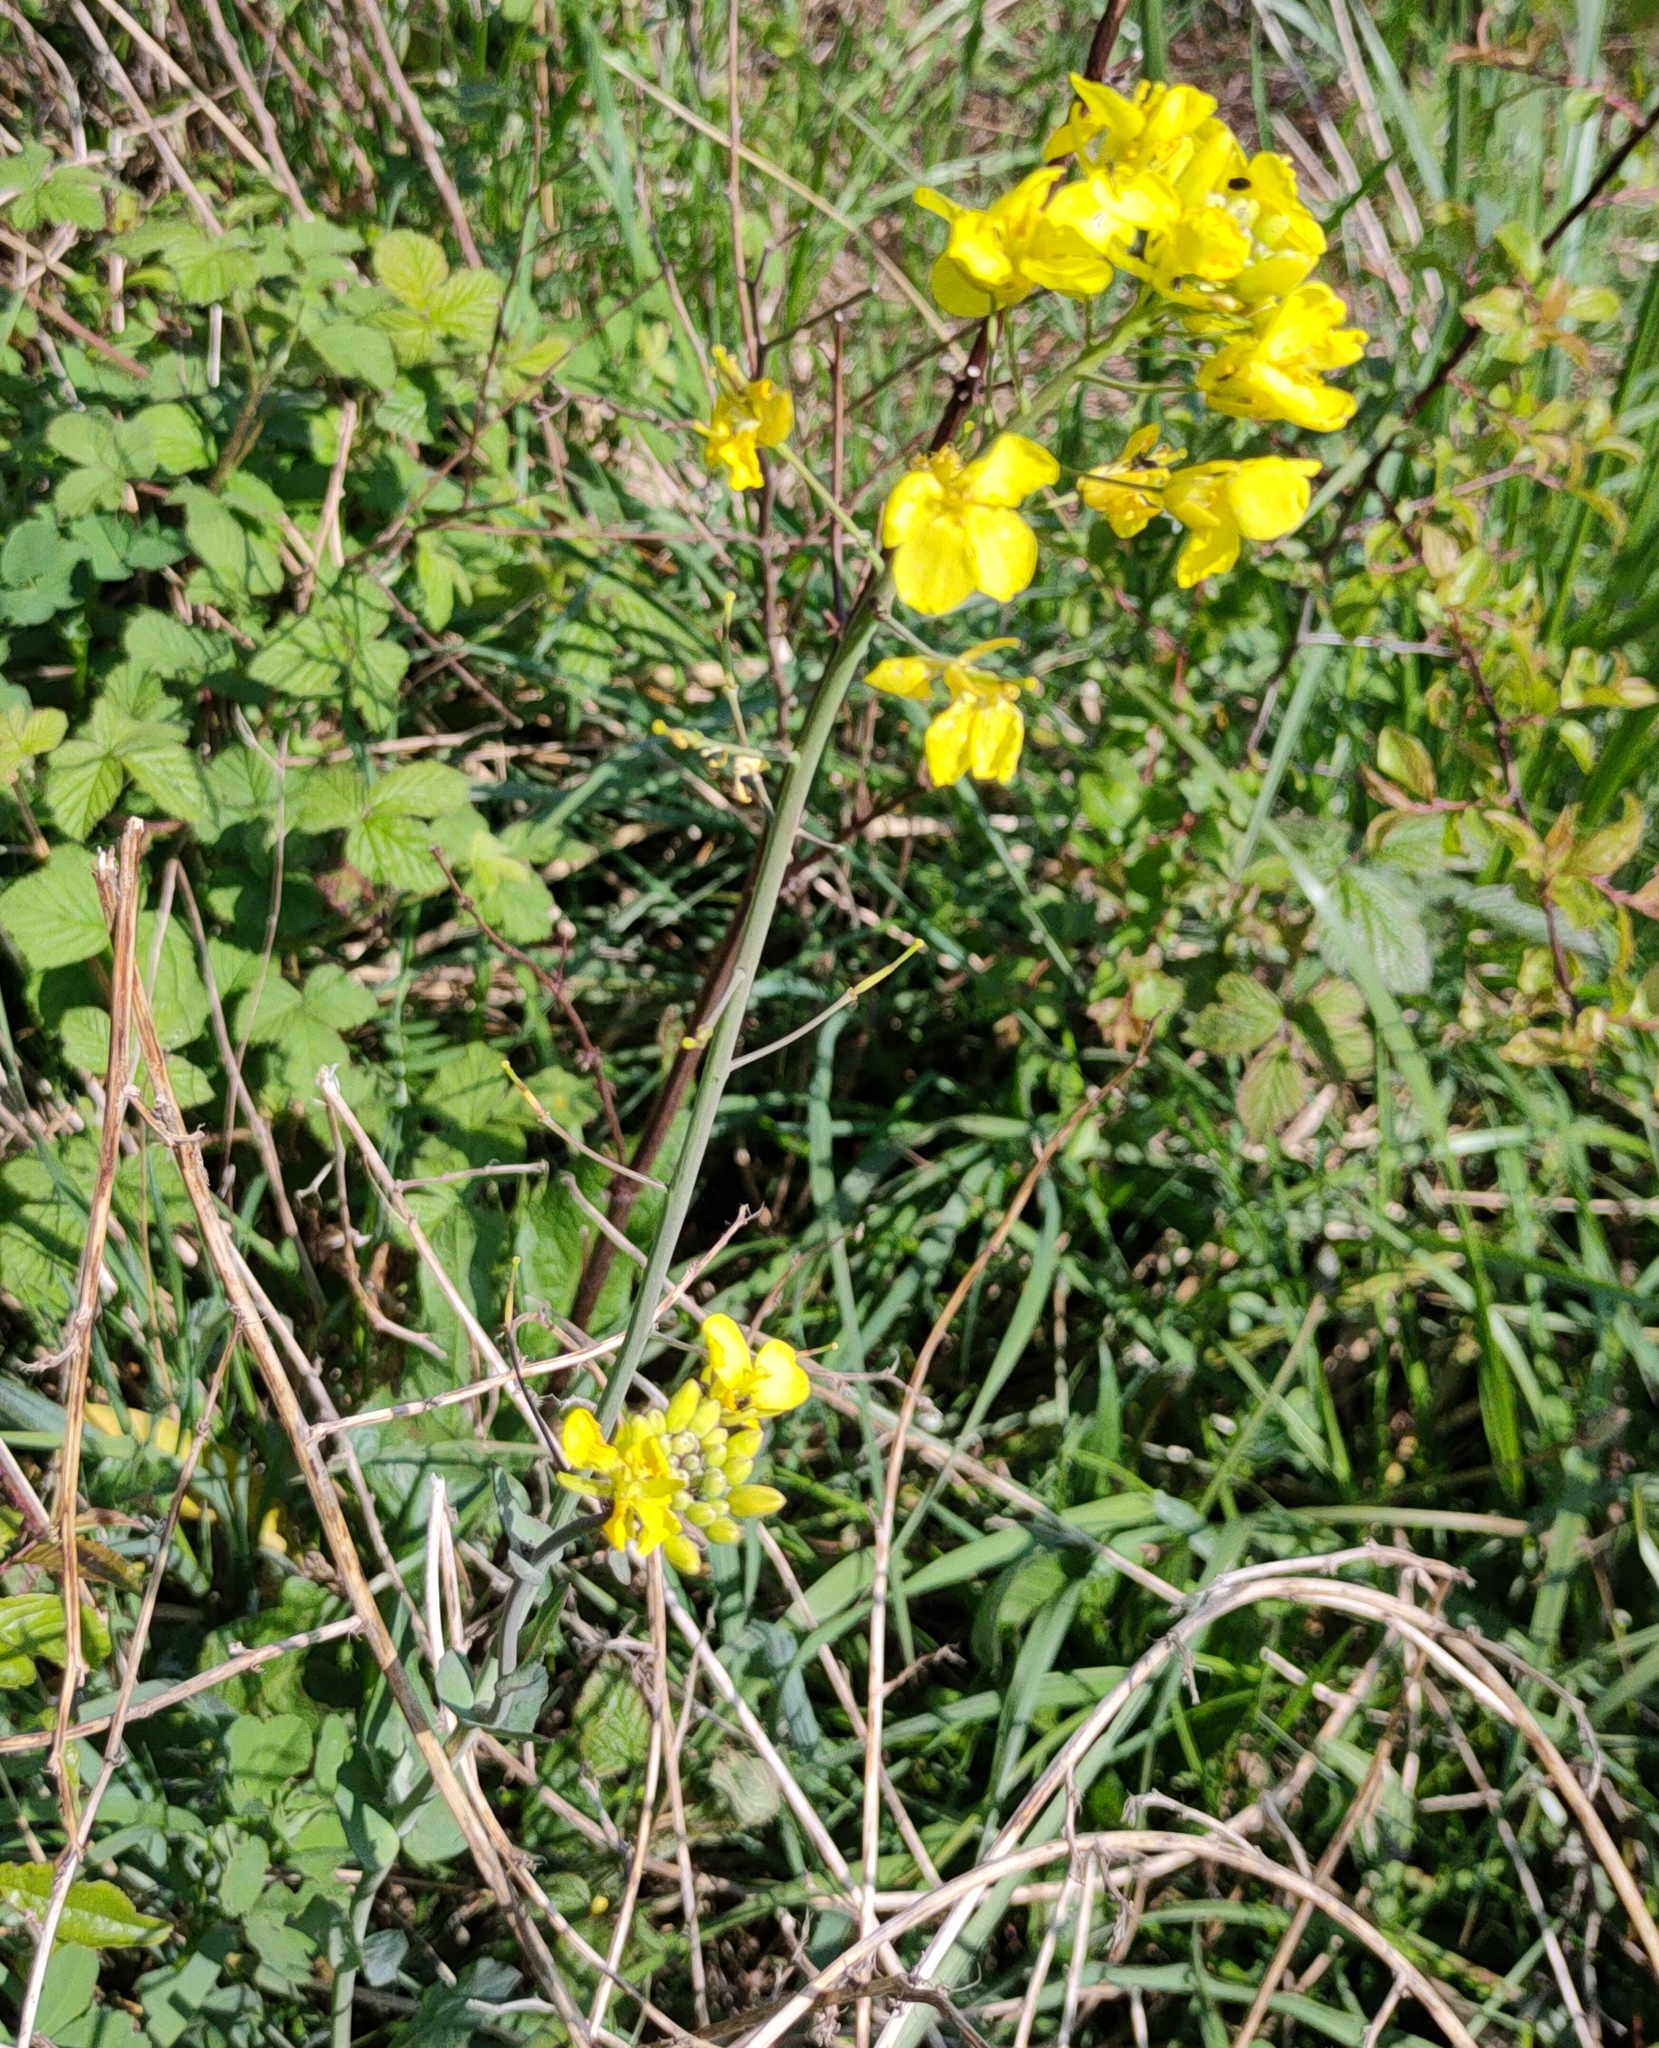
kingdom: Plantae
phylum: Tracheophyta
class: Magnoliopsida
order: Brassicales
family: Brassicaceae
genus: Brassica
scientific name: Brassica rapa
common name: Field mustard
